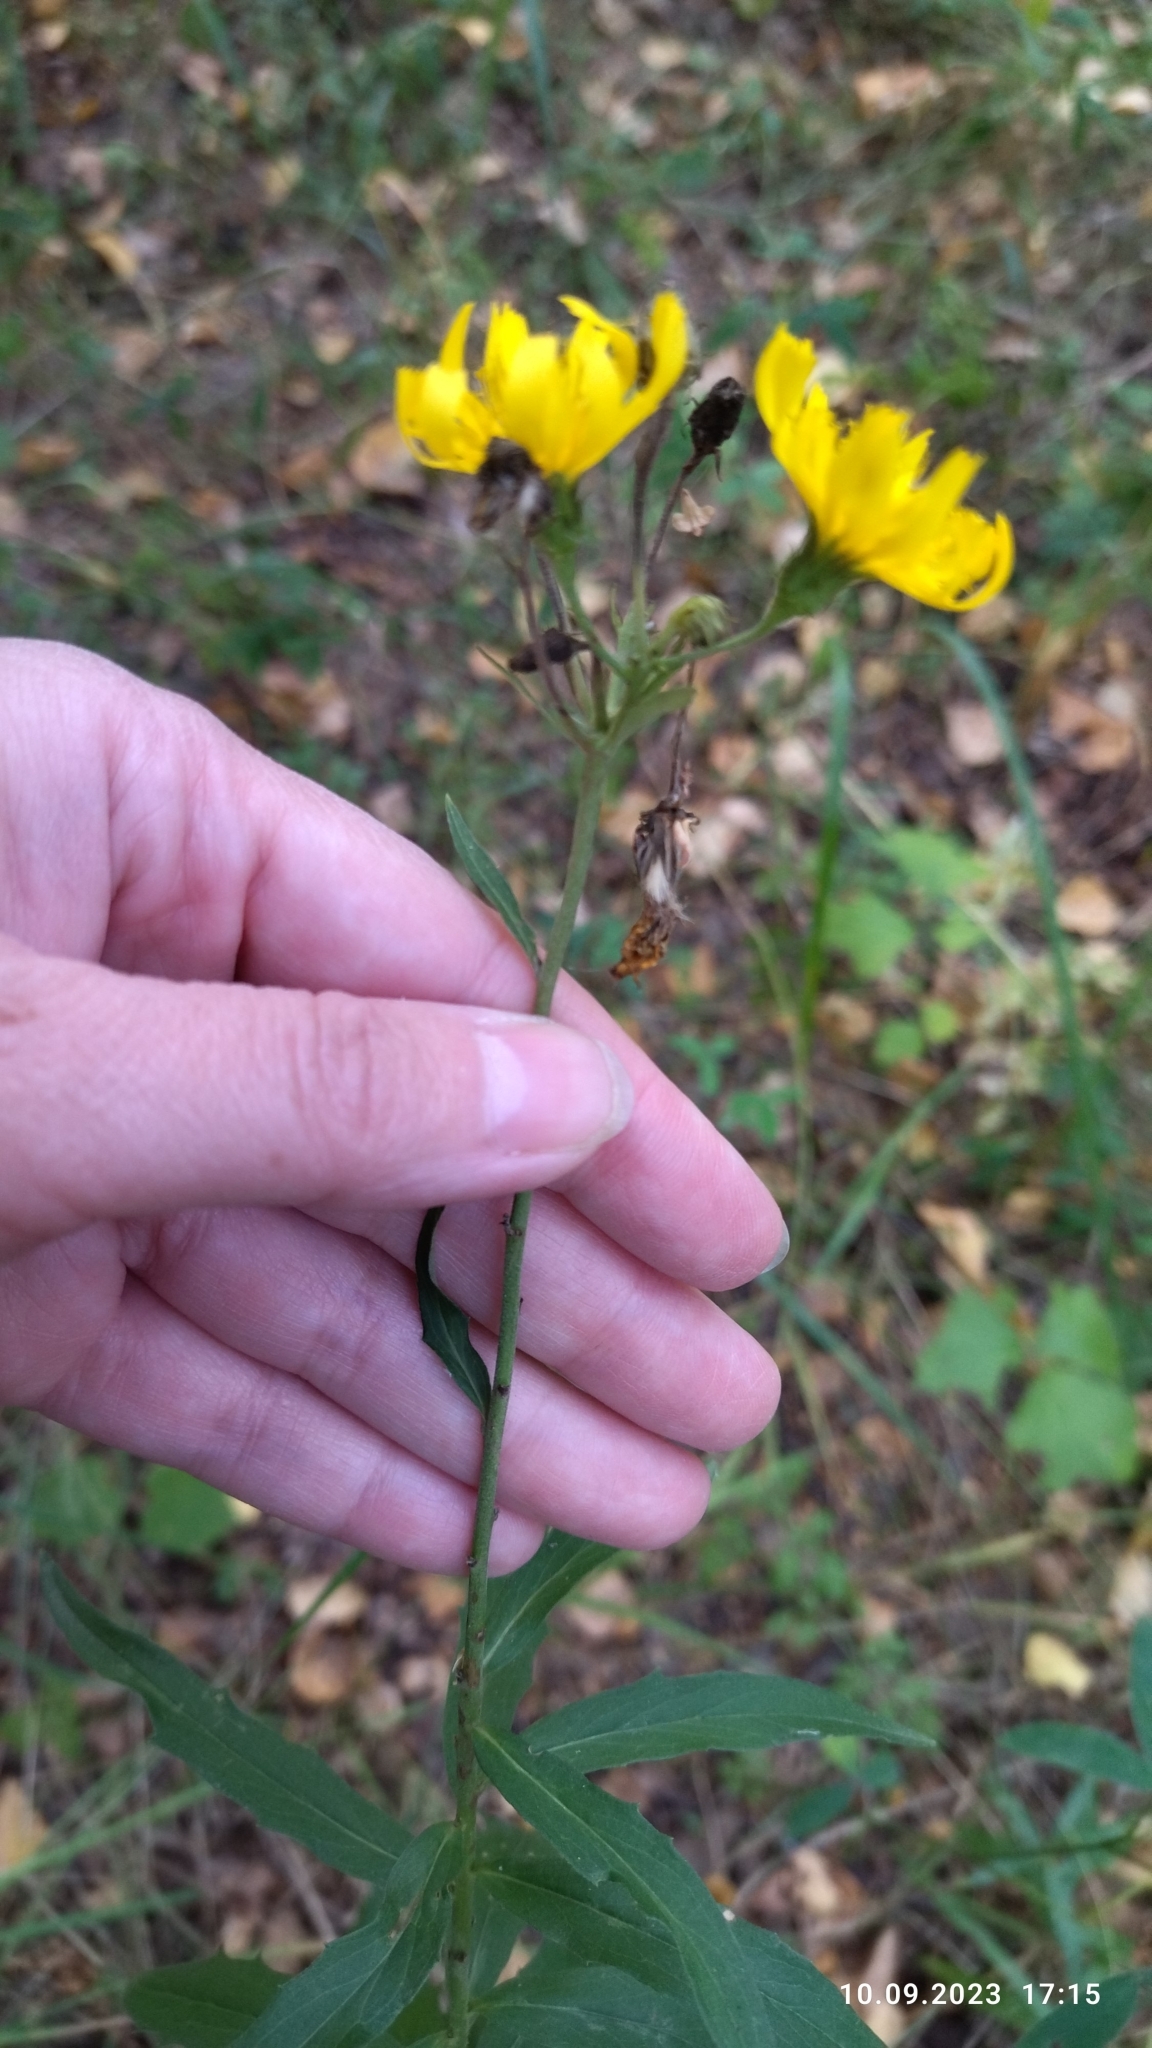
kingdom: Plantae
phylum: Tracheophyta
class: Magnoliopsida
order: Asterales
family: Asteraceae
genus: Hieracium
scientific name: Hieracium umbellatum
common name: Northern hawkweed
